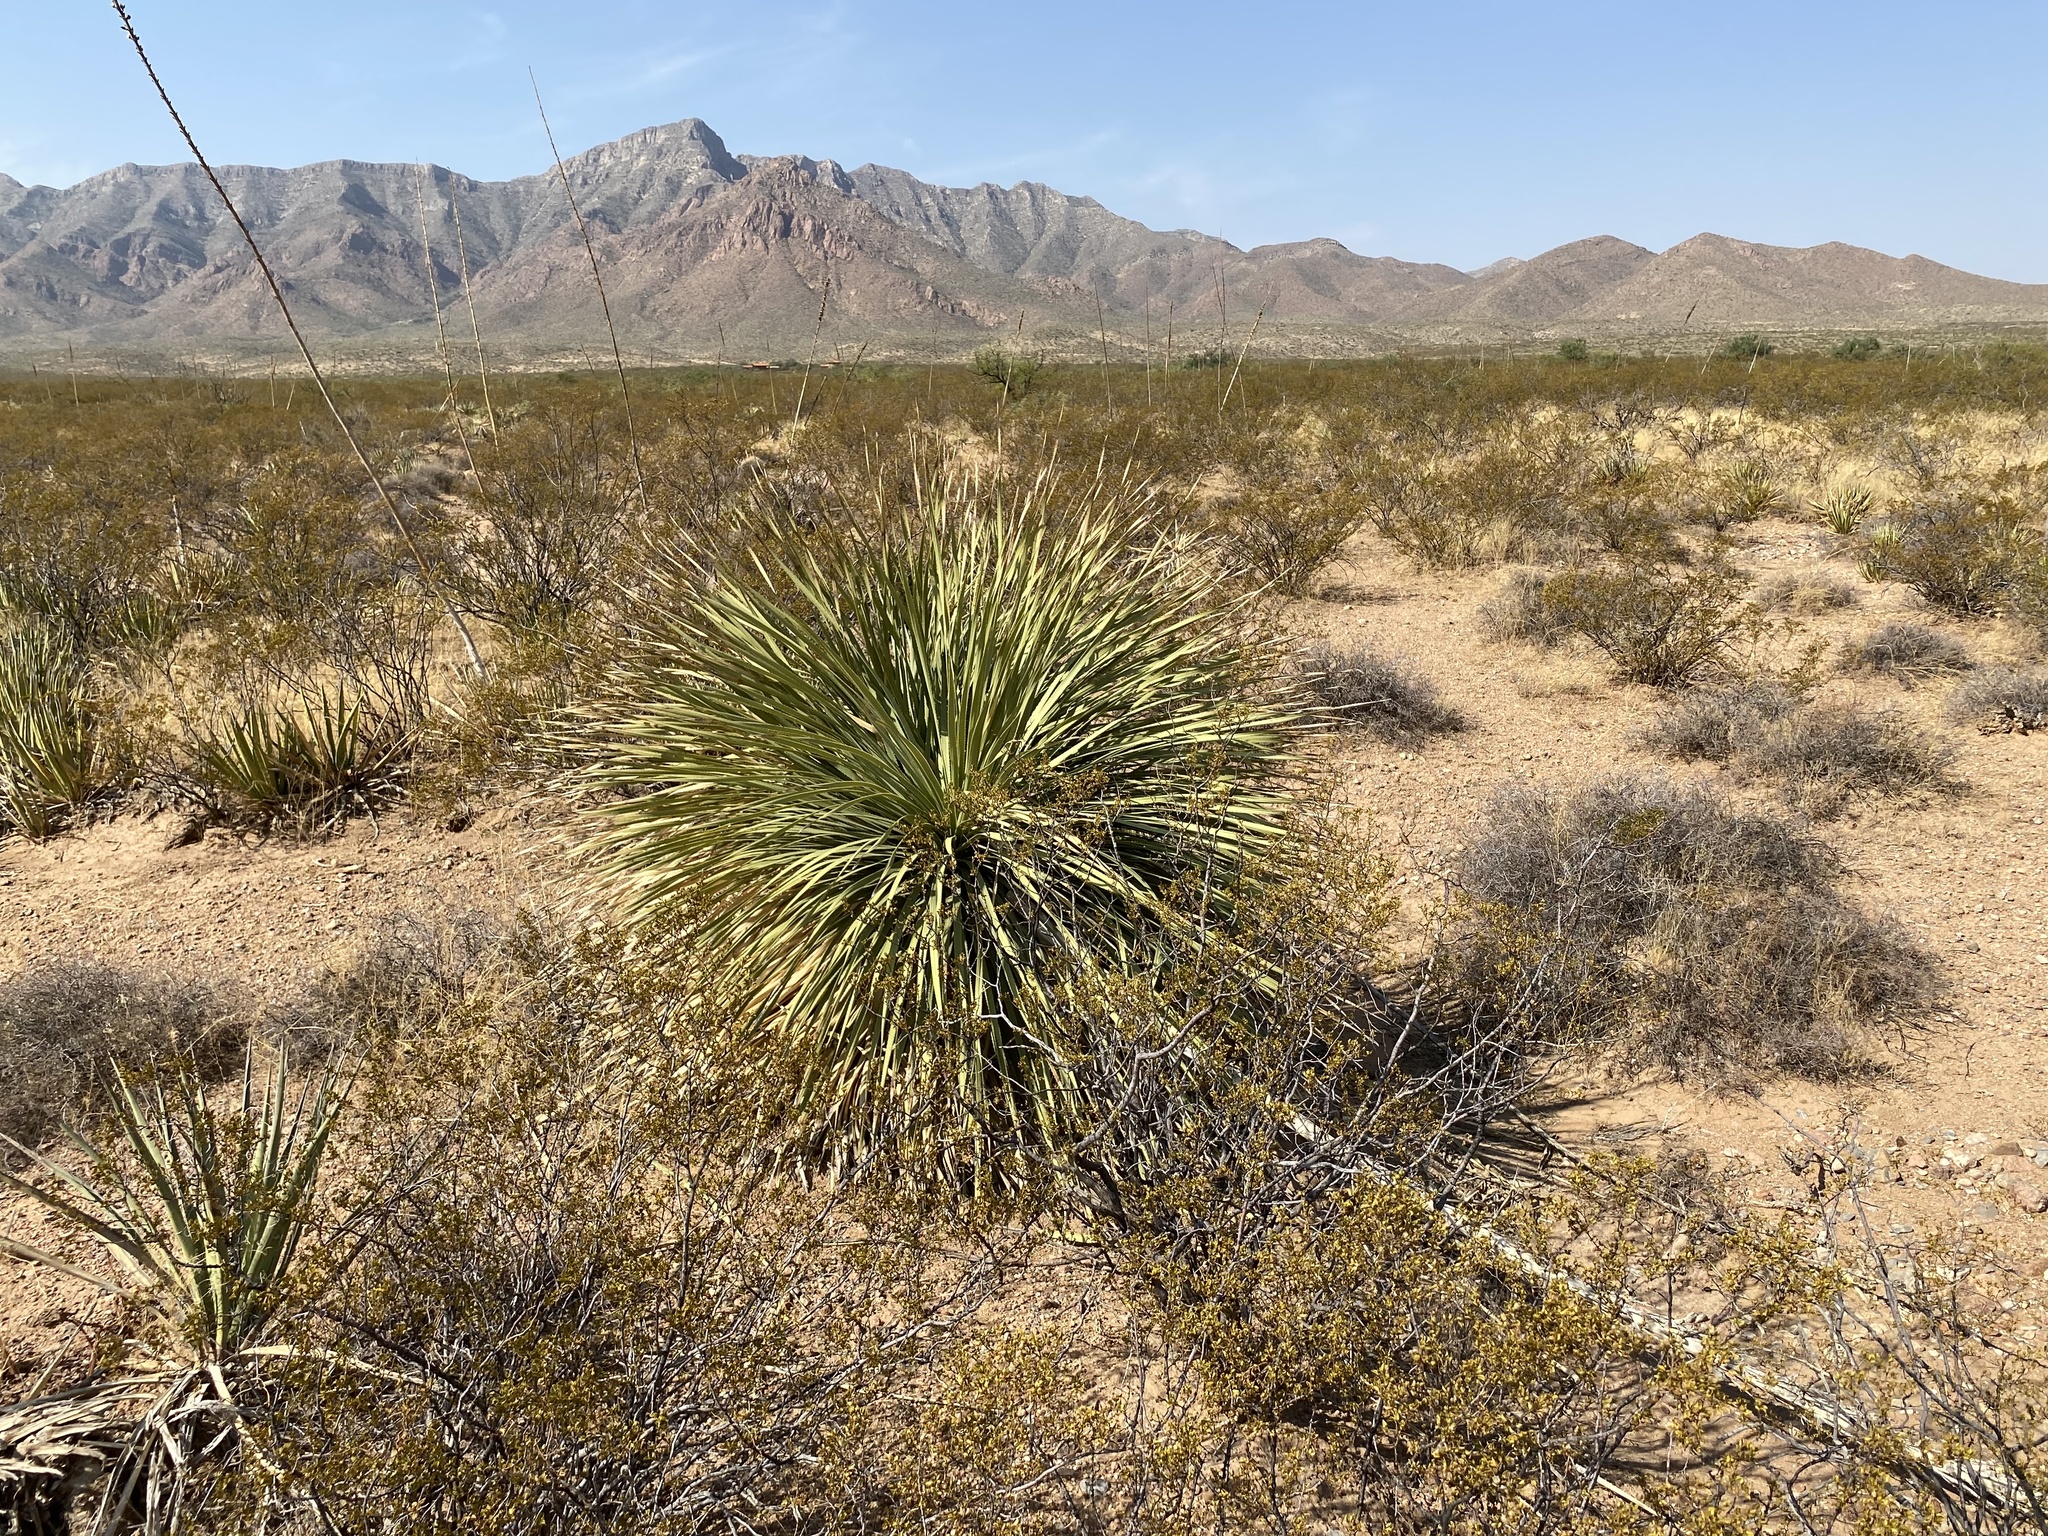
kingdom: Plantae
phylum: Tracheophyta
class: Liliopsida
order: Asparagales
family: Asparagaceae
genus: Dasylirion
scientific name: Dasylirion wheeleri
